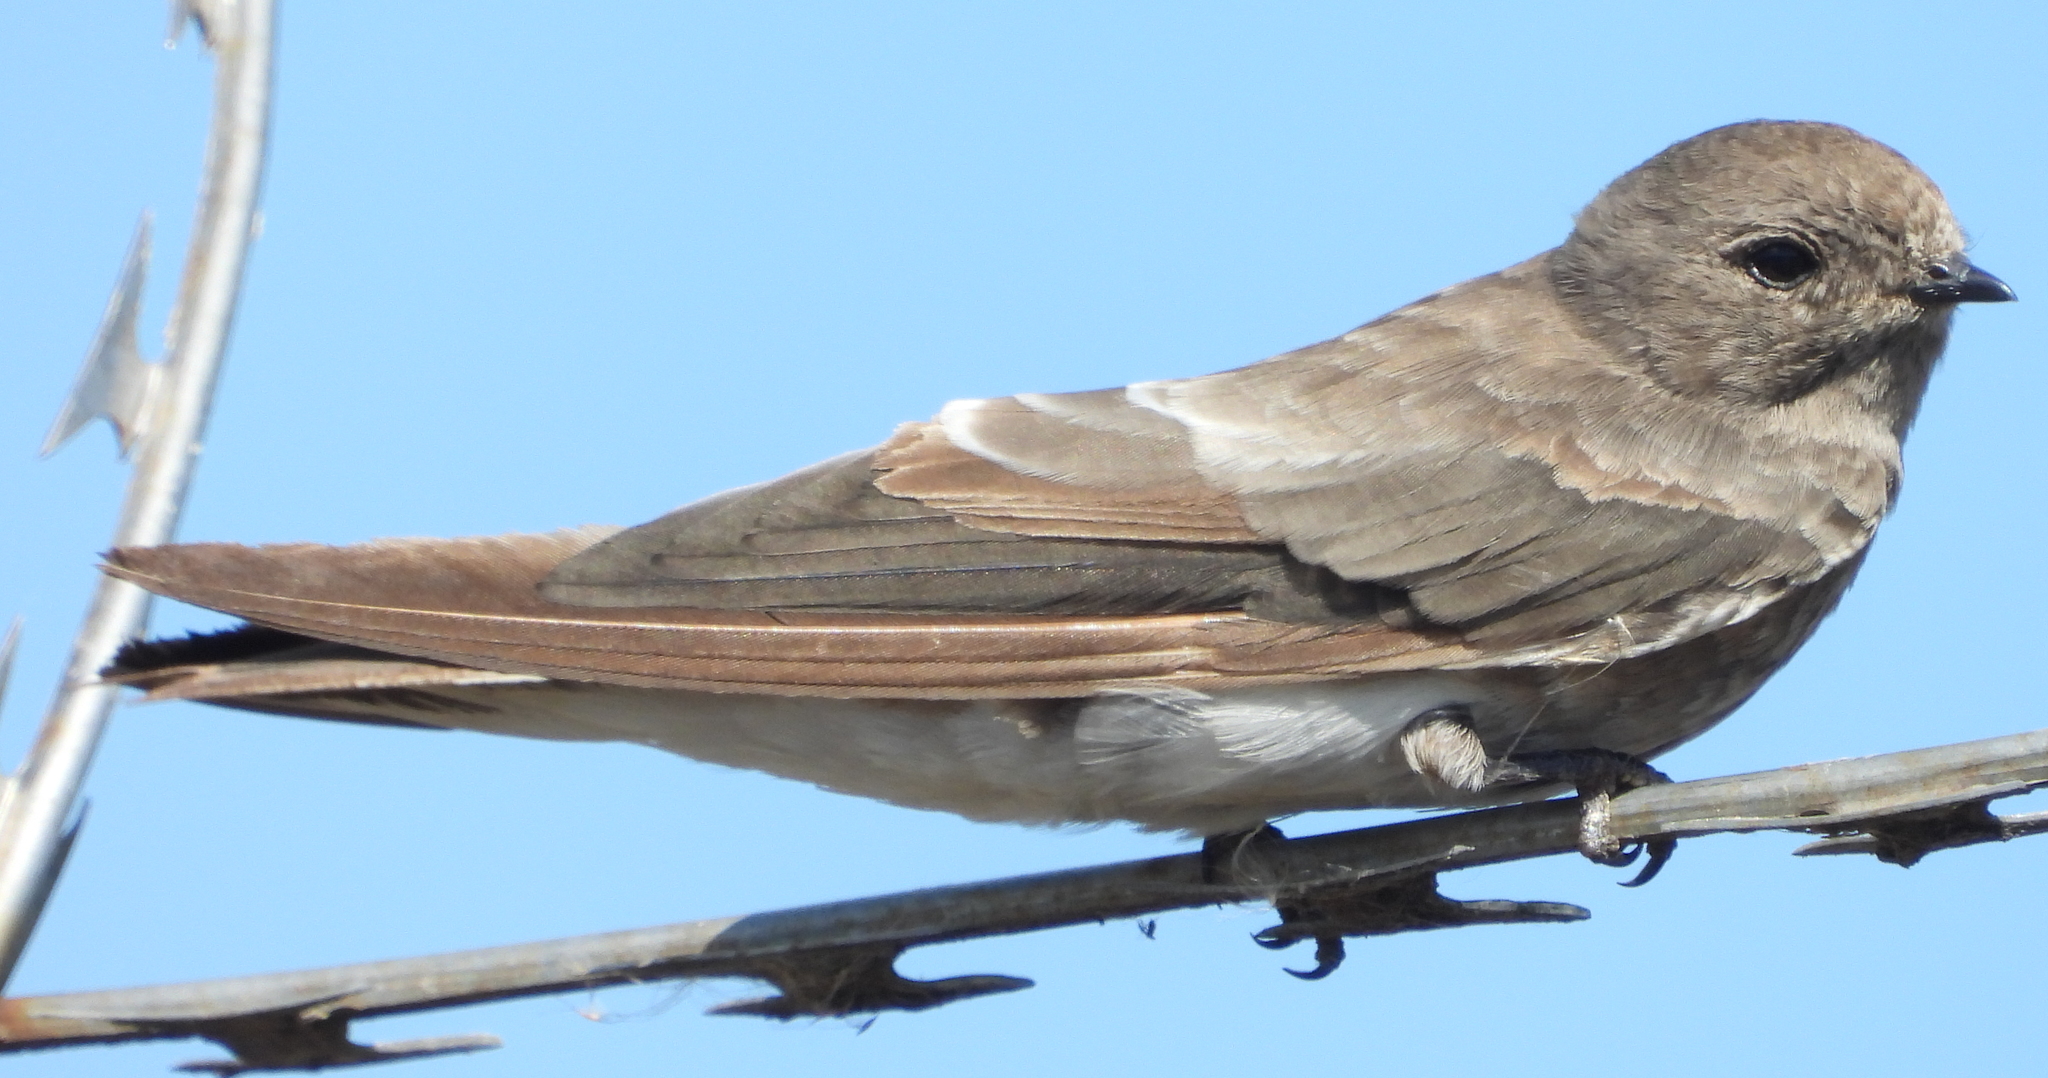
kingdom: Animalia
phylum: Chordata
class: Aves
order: Passeriformes
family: Hirundinidae
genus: Riparia
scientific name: Riparia paludicola
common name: Brown-throated martin
